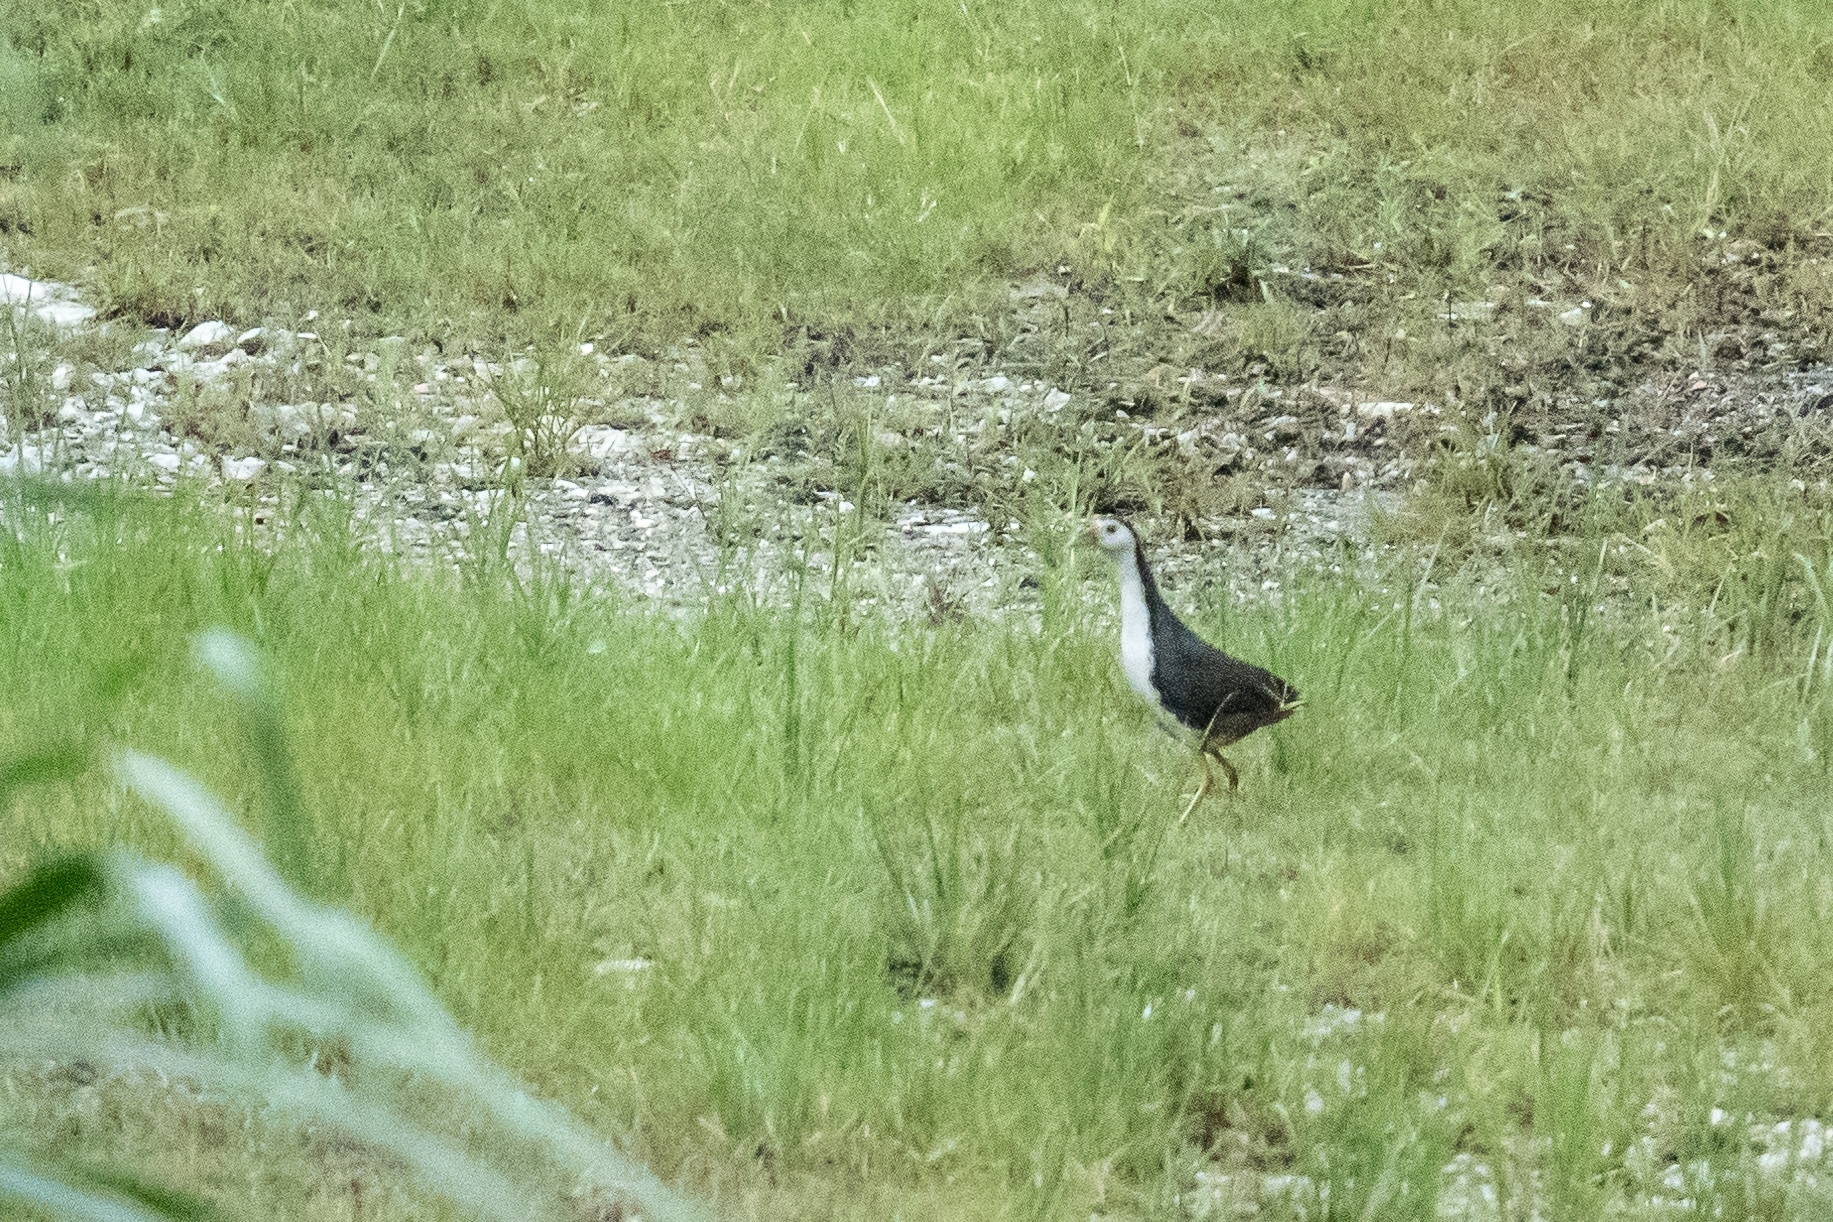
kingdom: Animalia
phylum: Chordata
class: Aves
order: Gruiformes
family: Rallidae
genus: Amaurornis
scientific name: Amaurornis phoenicurus
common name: White-breasted waterhen
